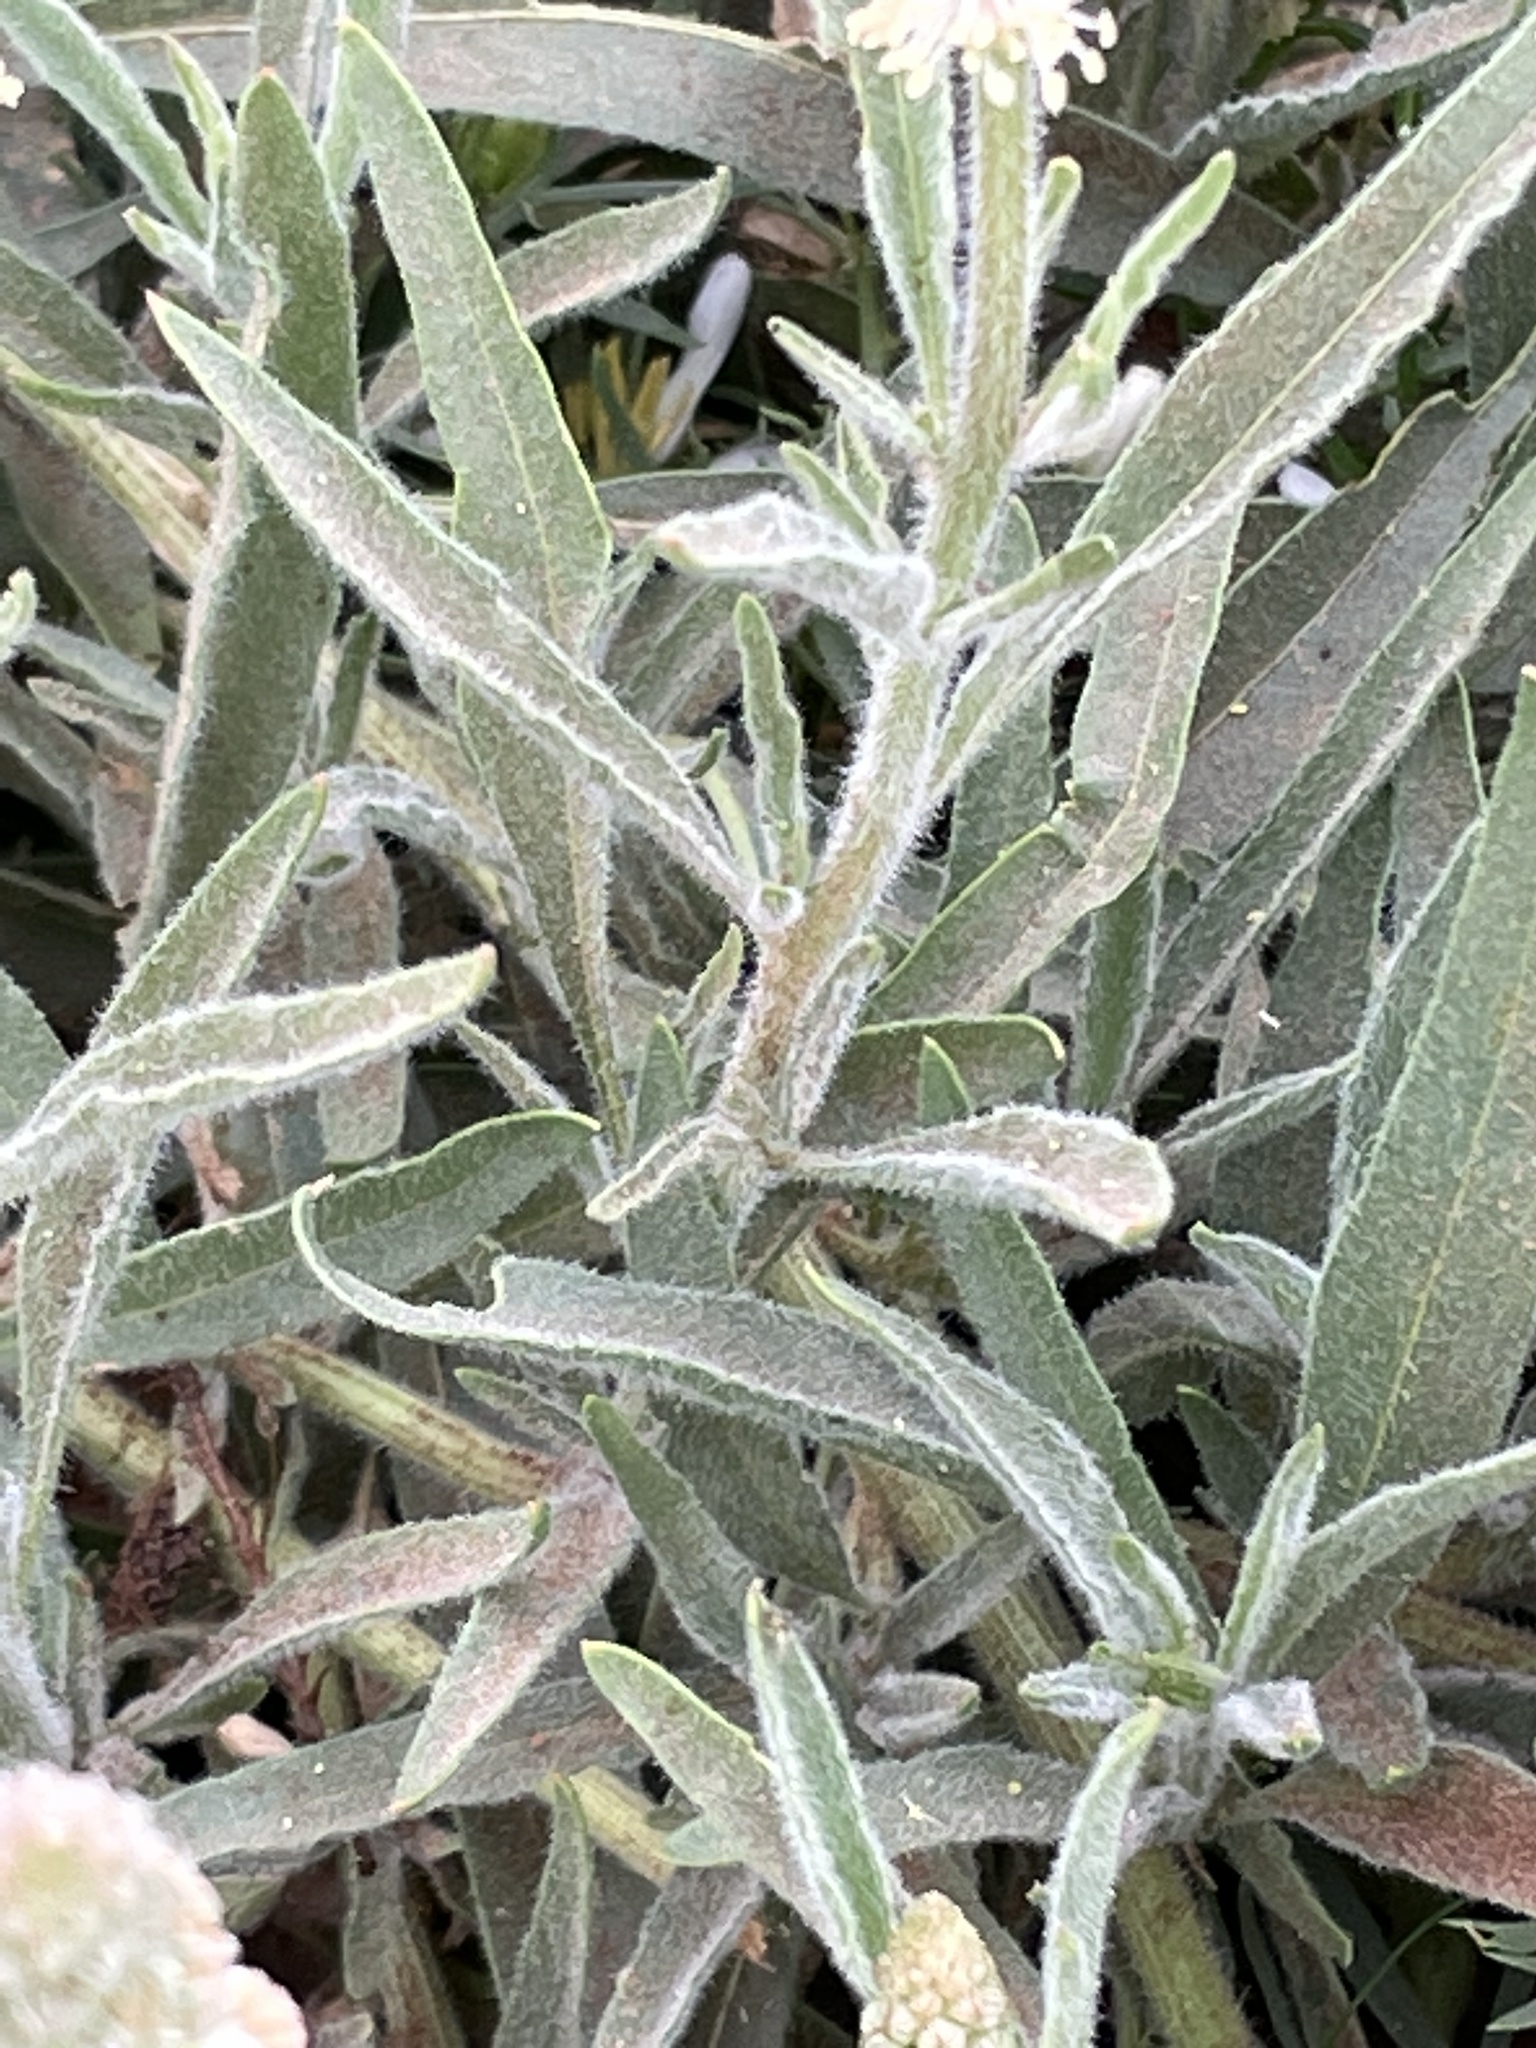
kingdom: Plantae
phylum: Tracheophyta
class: Magnoliopsida
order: Brassicales
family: Resedaceae
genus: Reseda
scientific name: Reseda villosa
